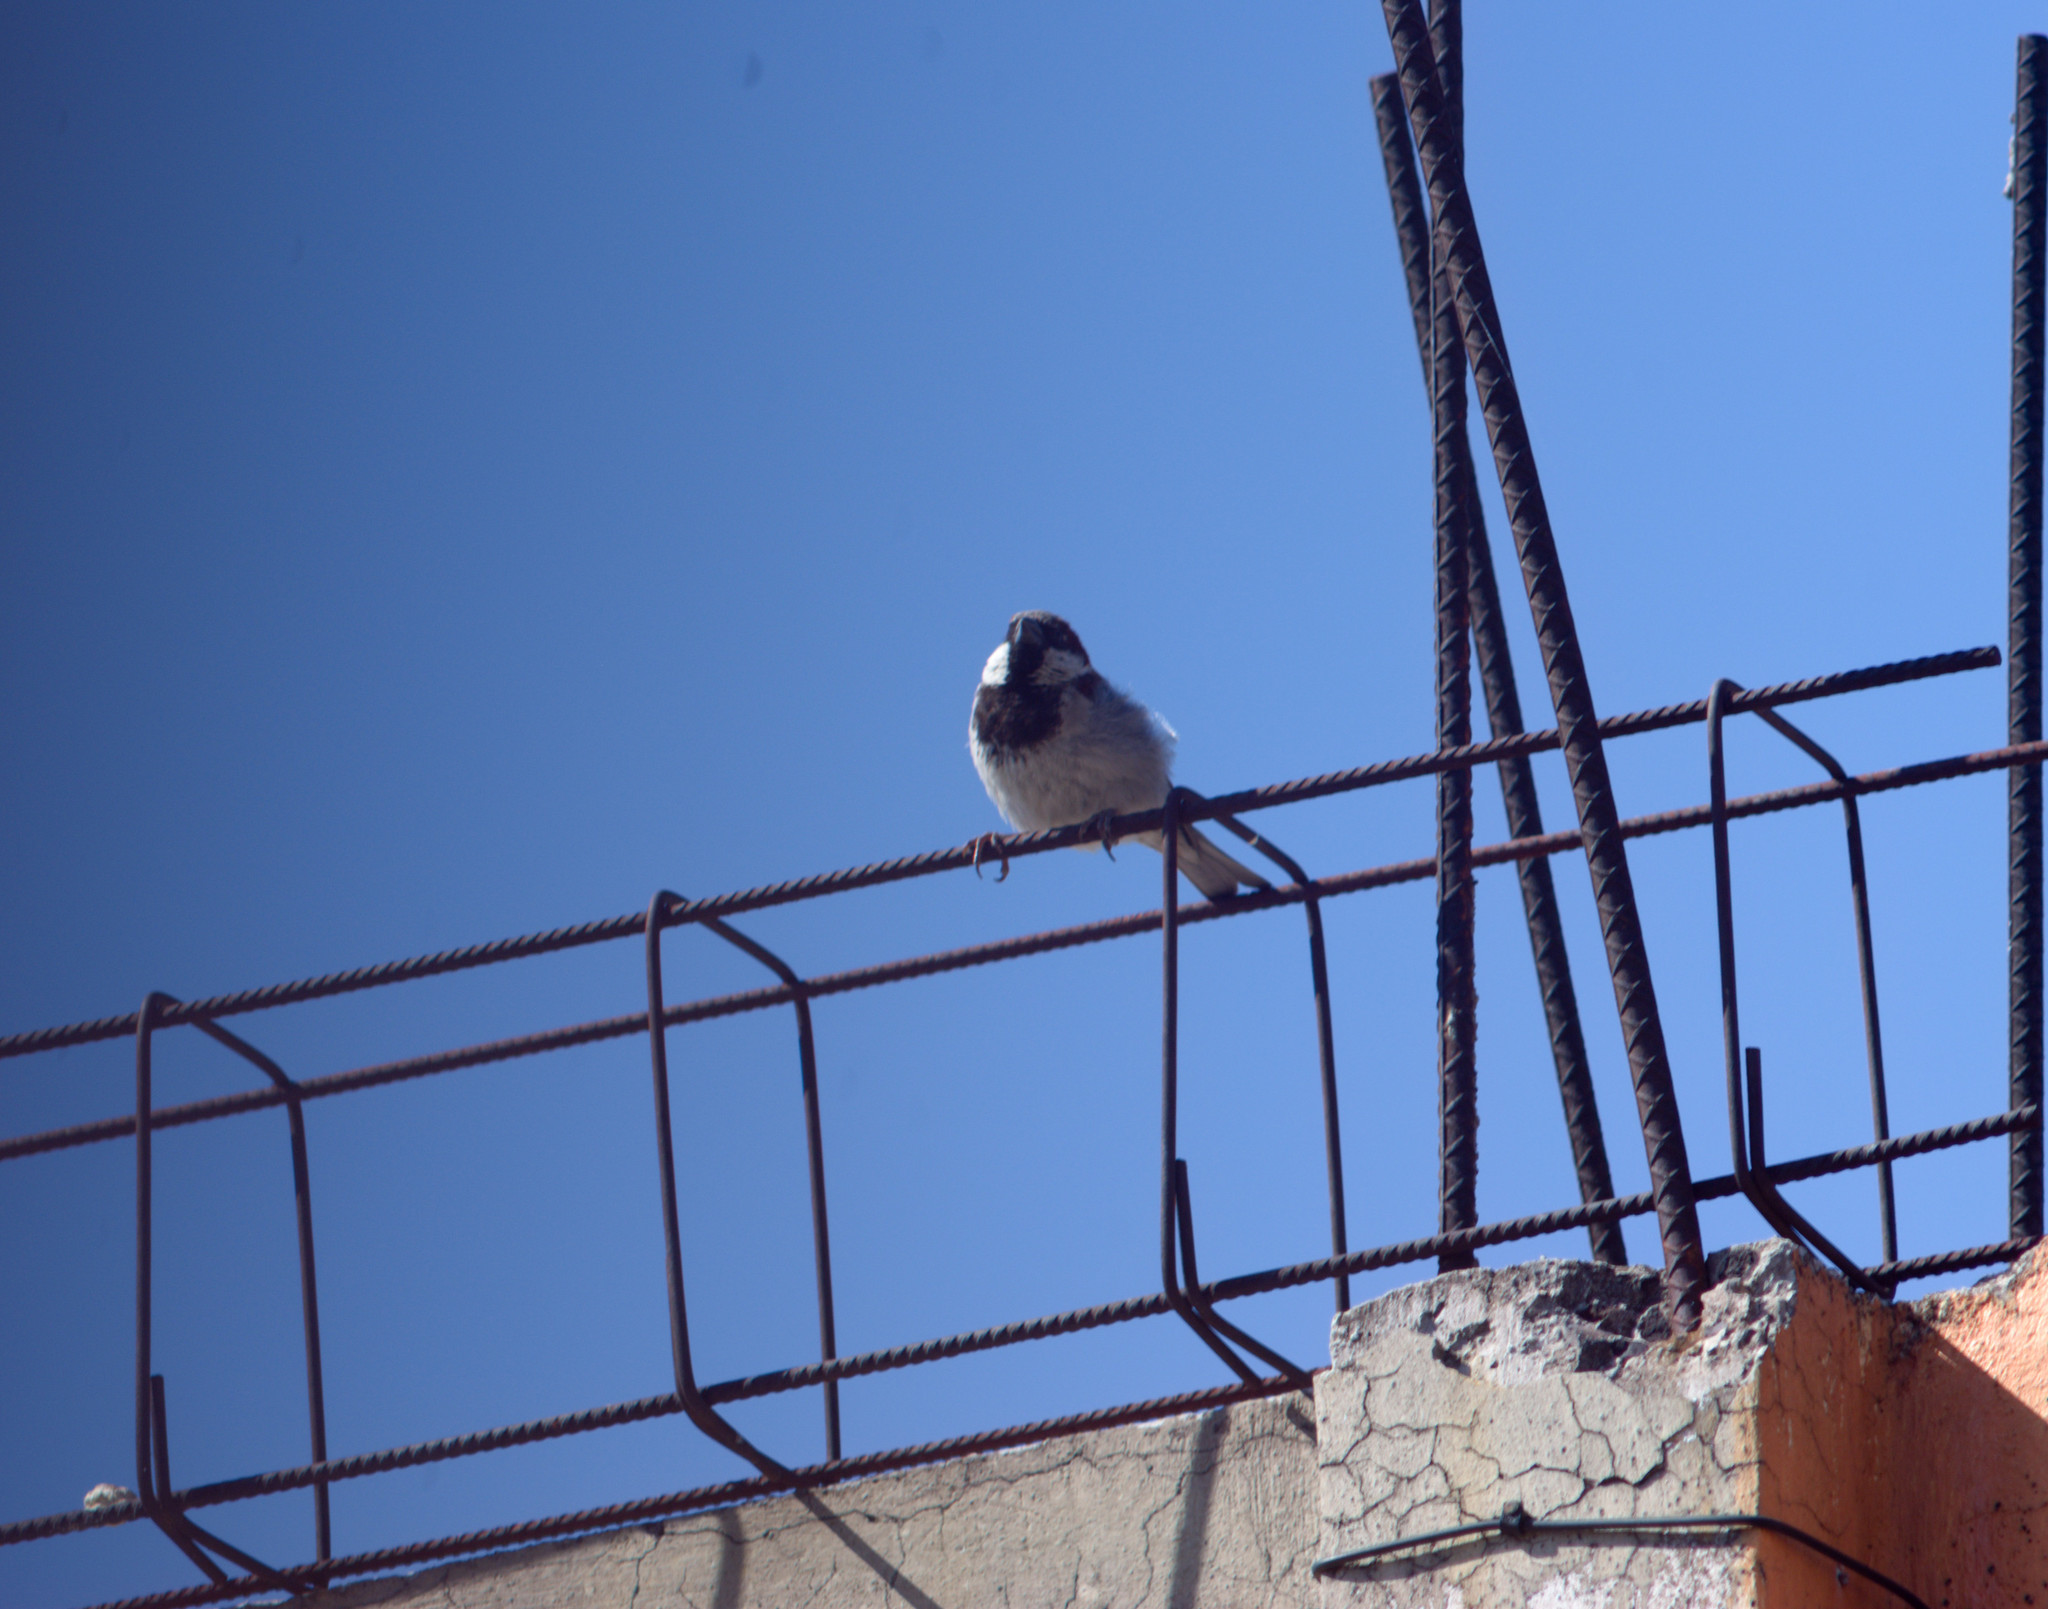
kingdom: Animalia
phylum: Chordata
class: Aves
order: Passeriformes
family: Passeridae
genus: Passer
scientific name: Passer domesticus
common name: House sparrow
